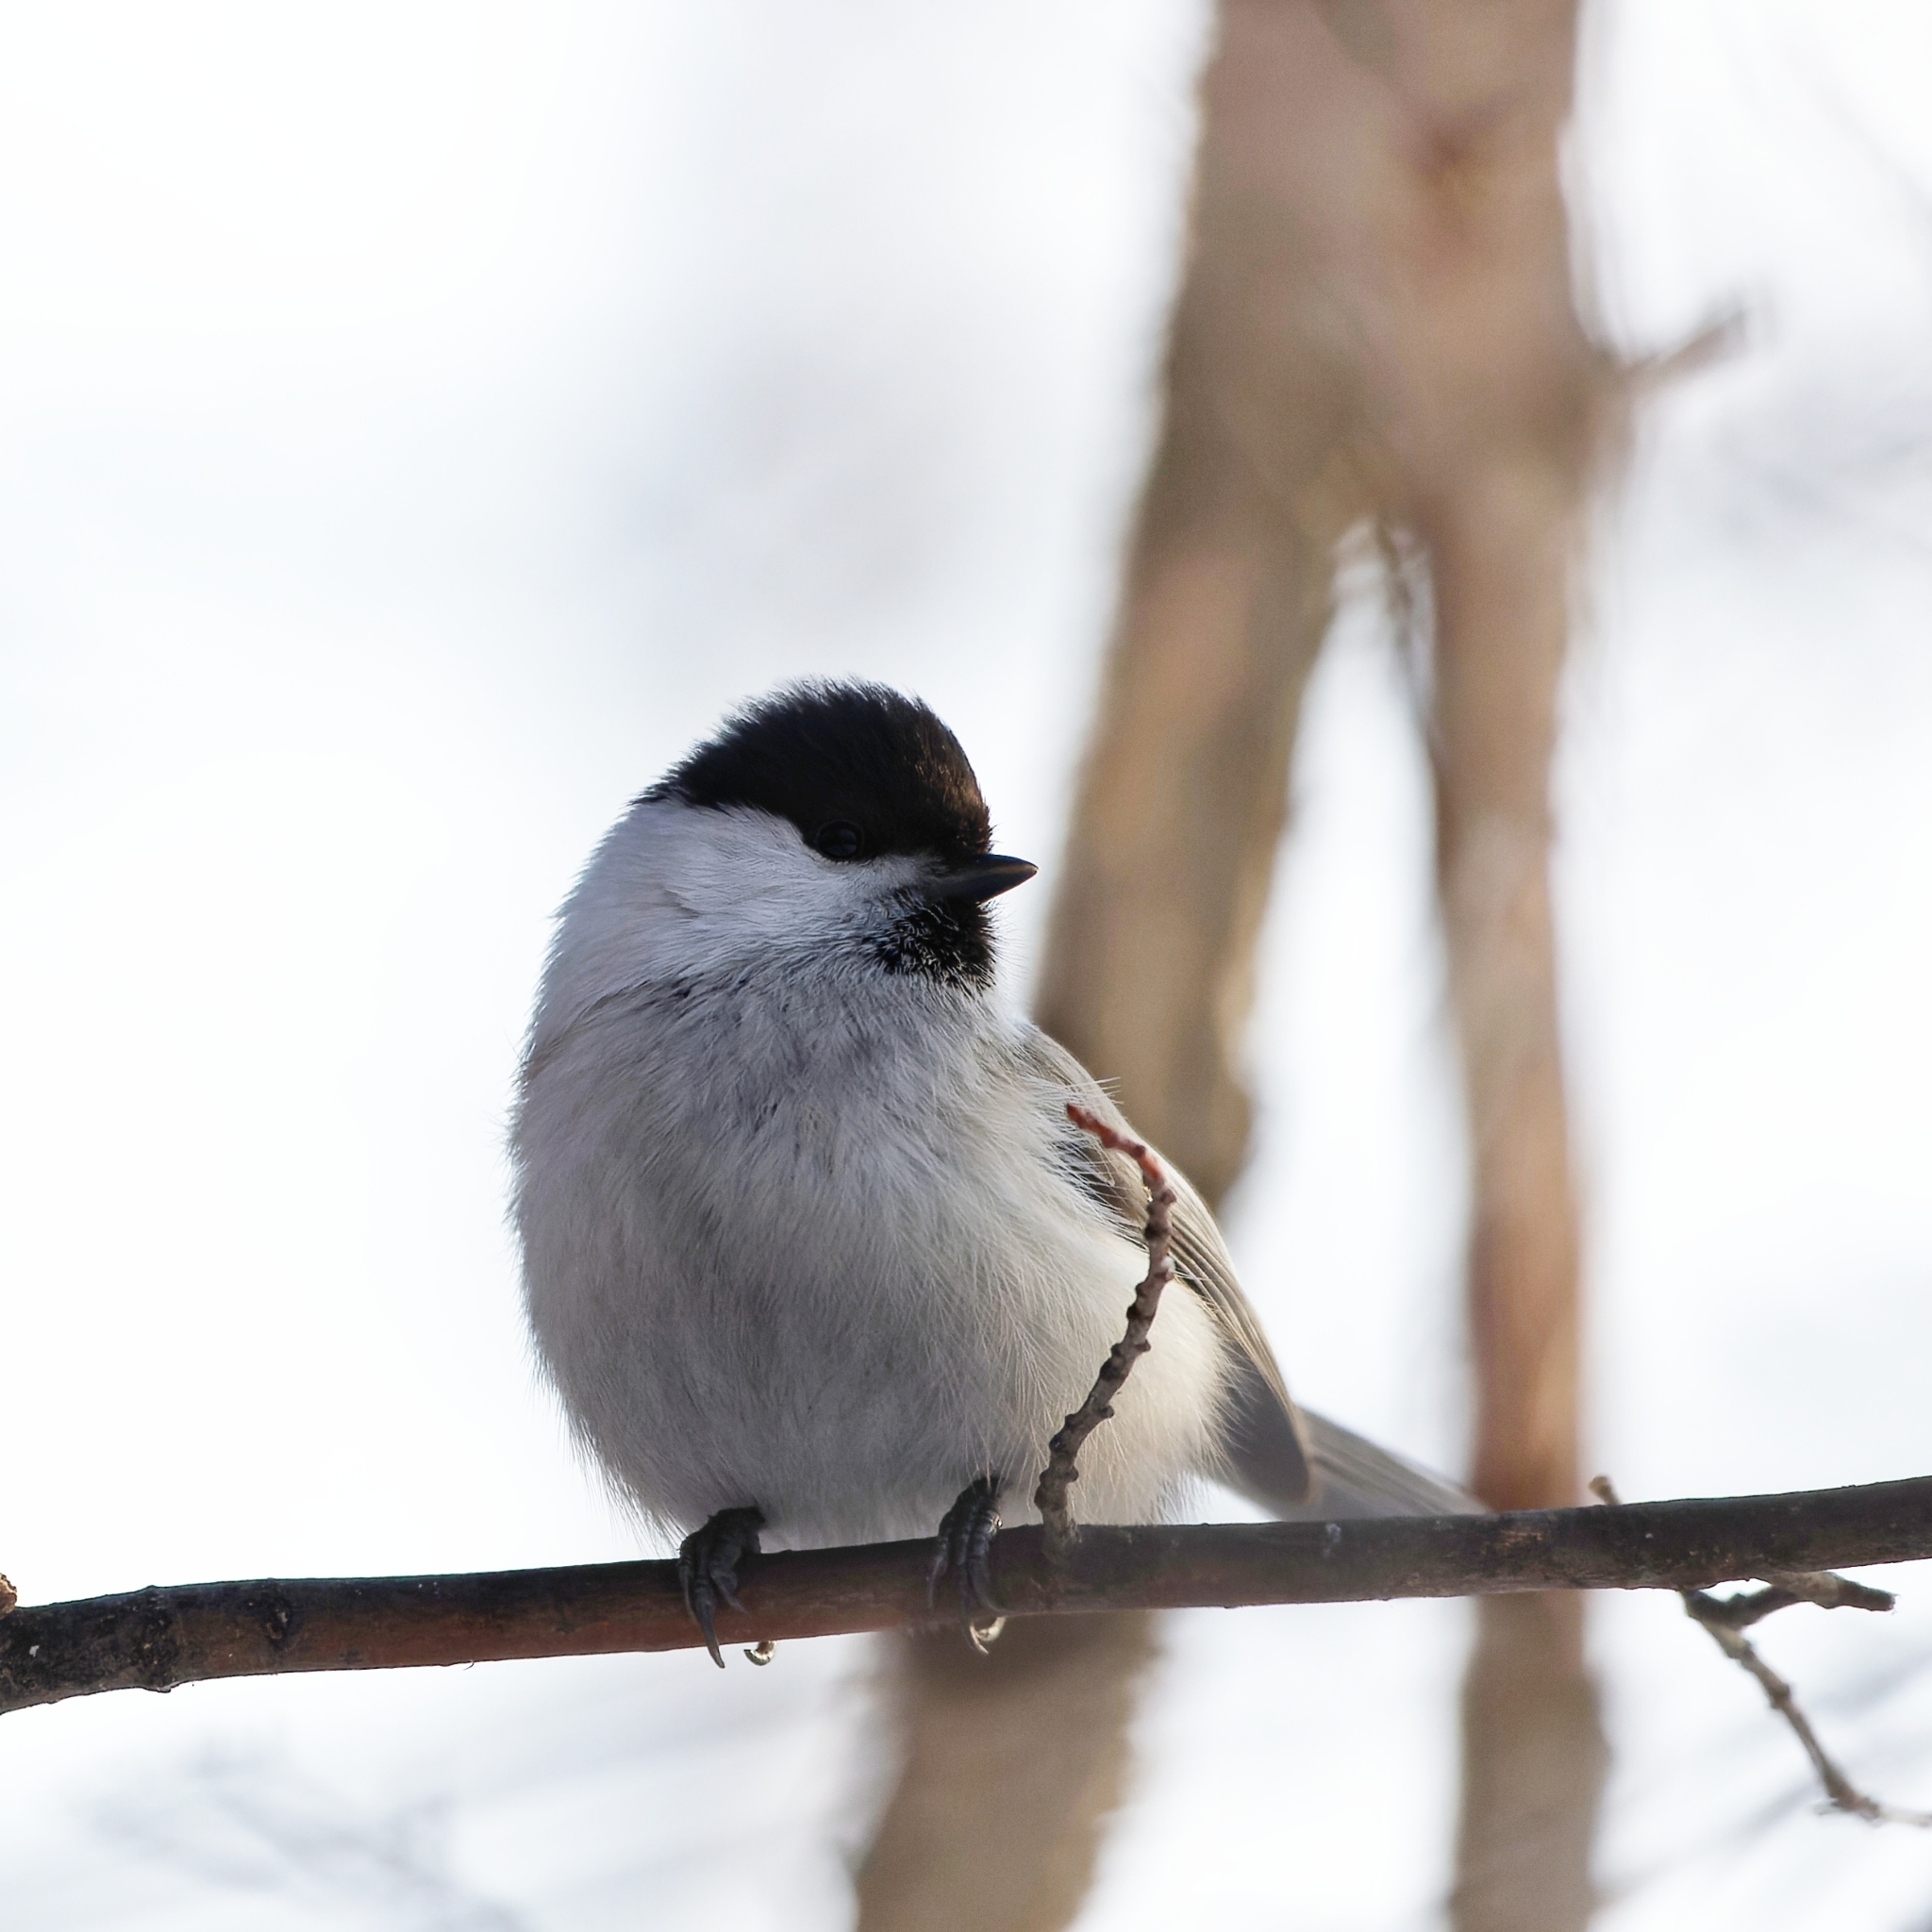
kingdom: Animalia
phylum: Chordata
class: Aves
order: Passeriformes
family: Paridae
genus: Poecile
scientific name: Poecile montanus
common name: Willow tit
